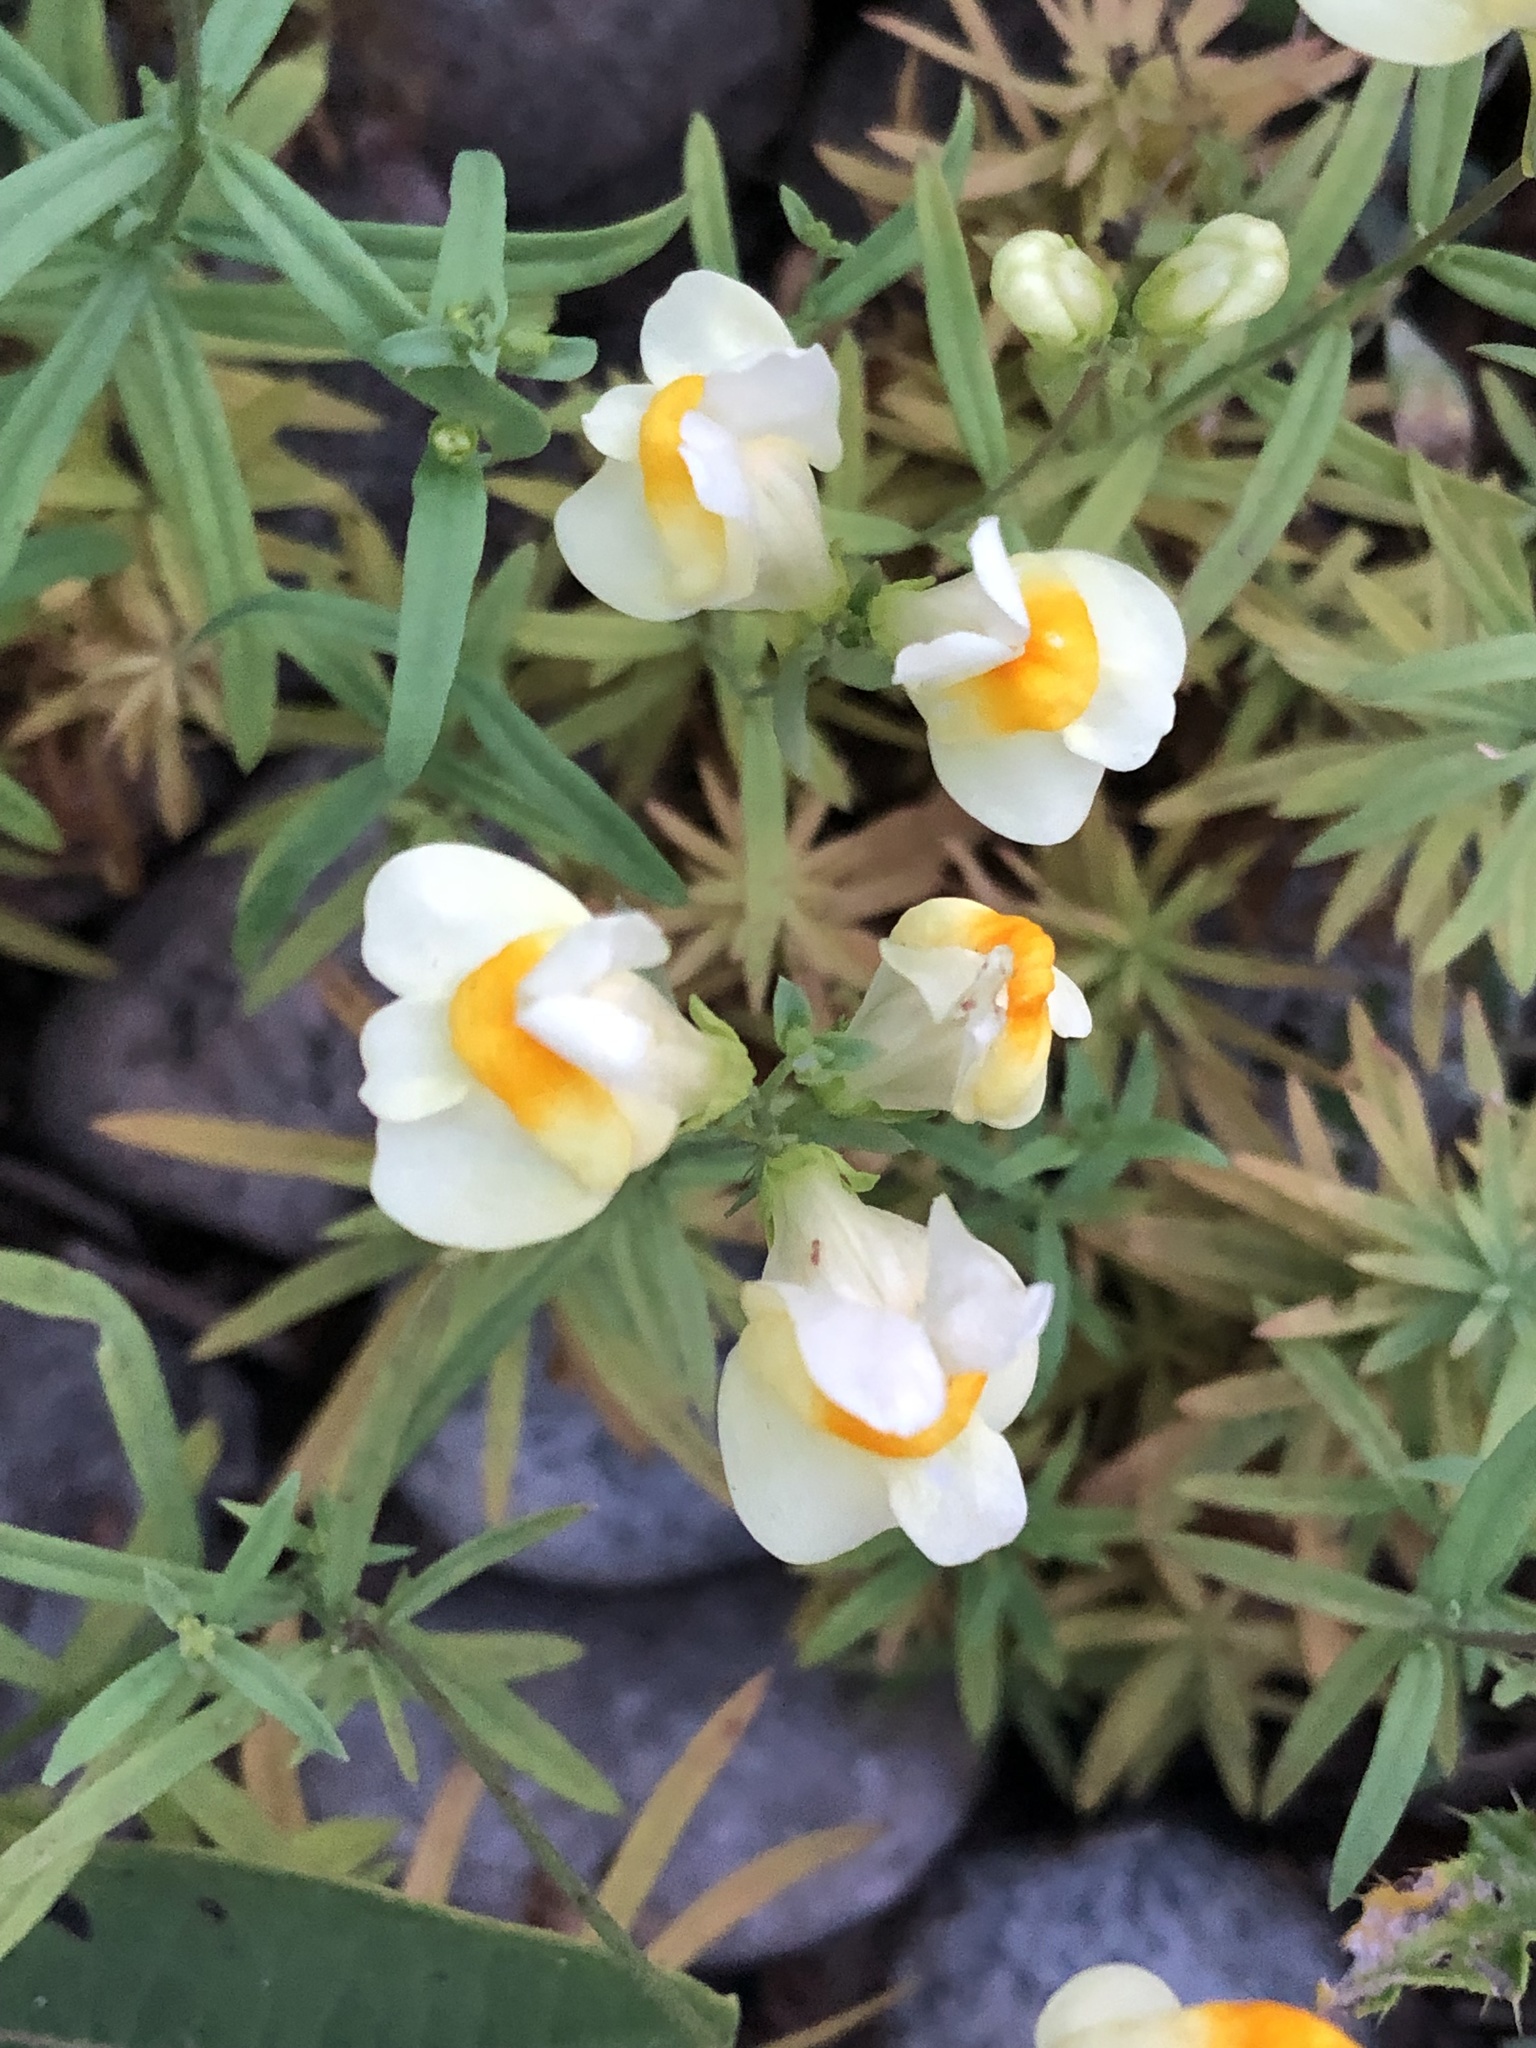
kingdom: Plantae
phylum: Tracheophyta
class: Magnoliopsida
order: Lamiales
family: Plantaginaceae
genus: Linaria
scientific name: Linaria vulgaris
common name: Butter and eggs
